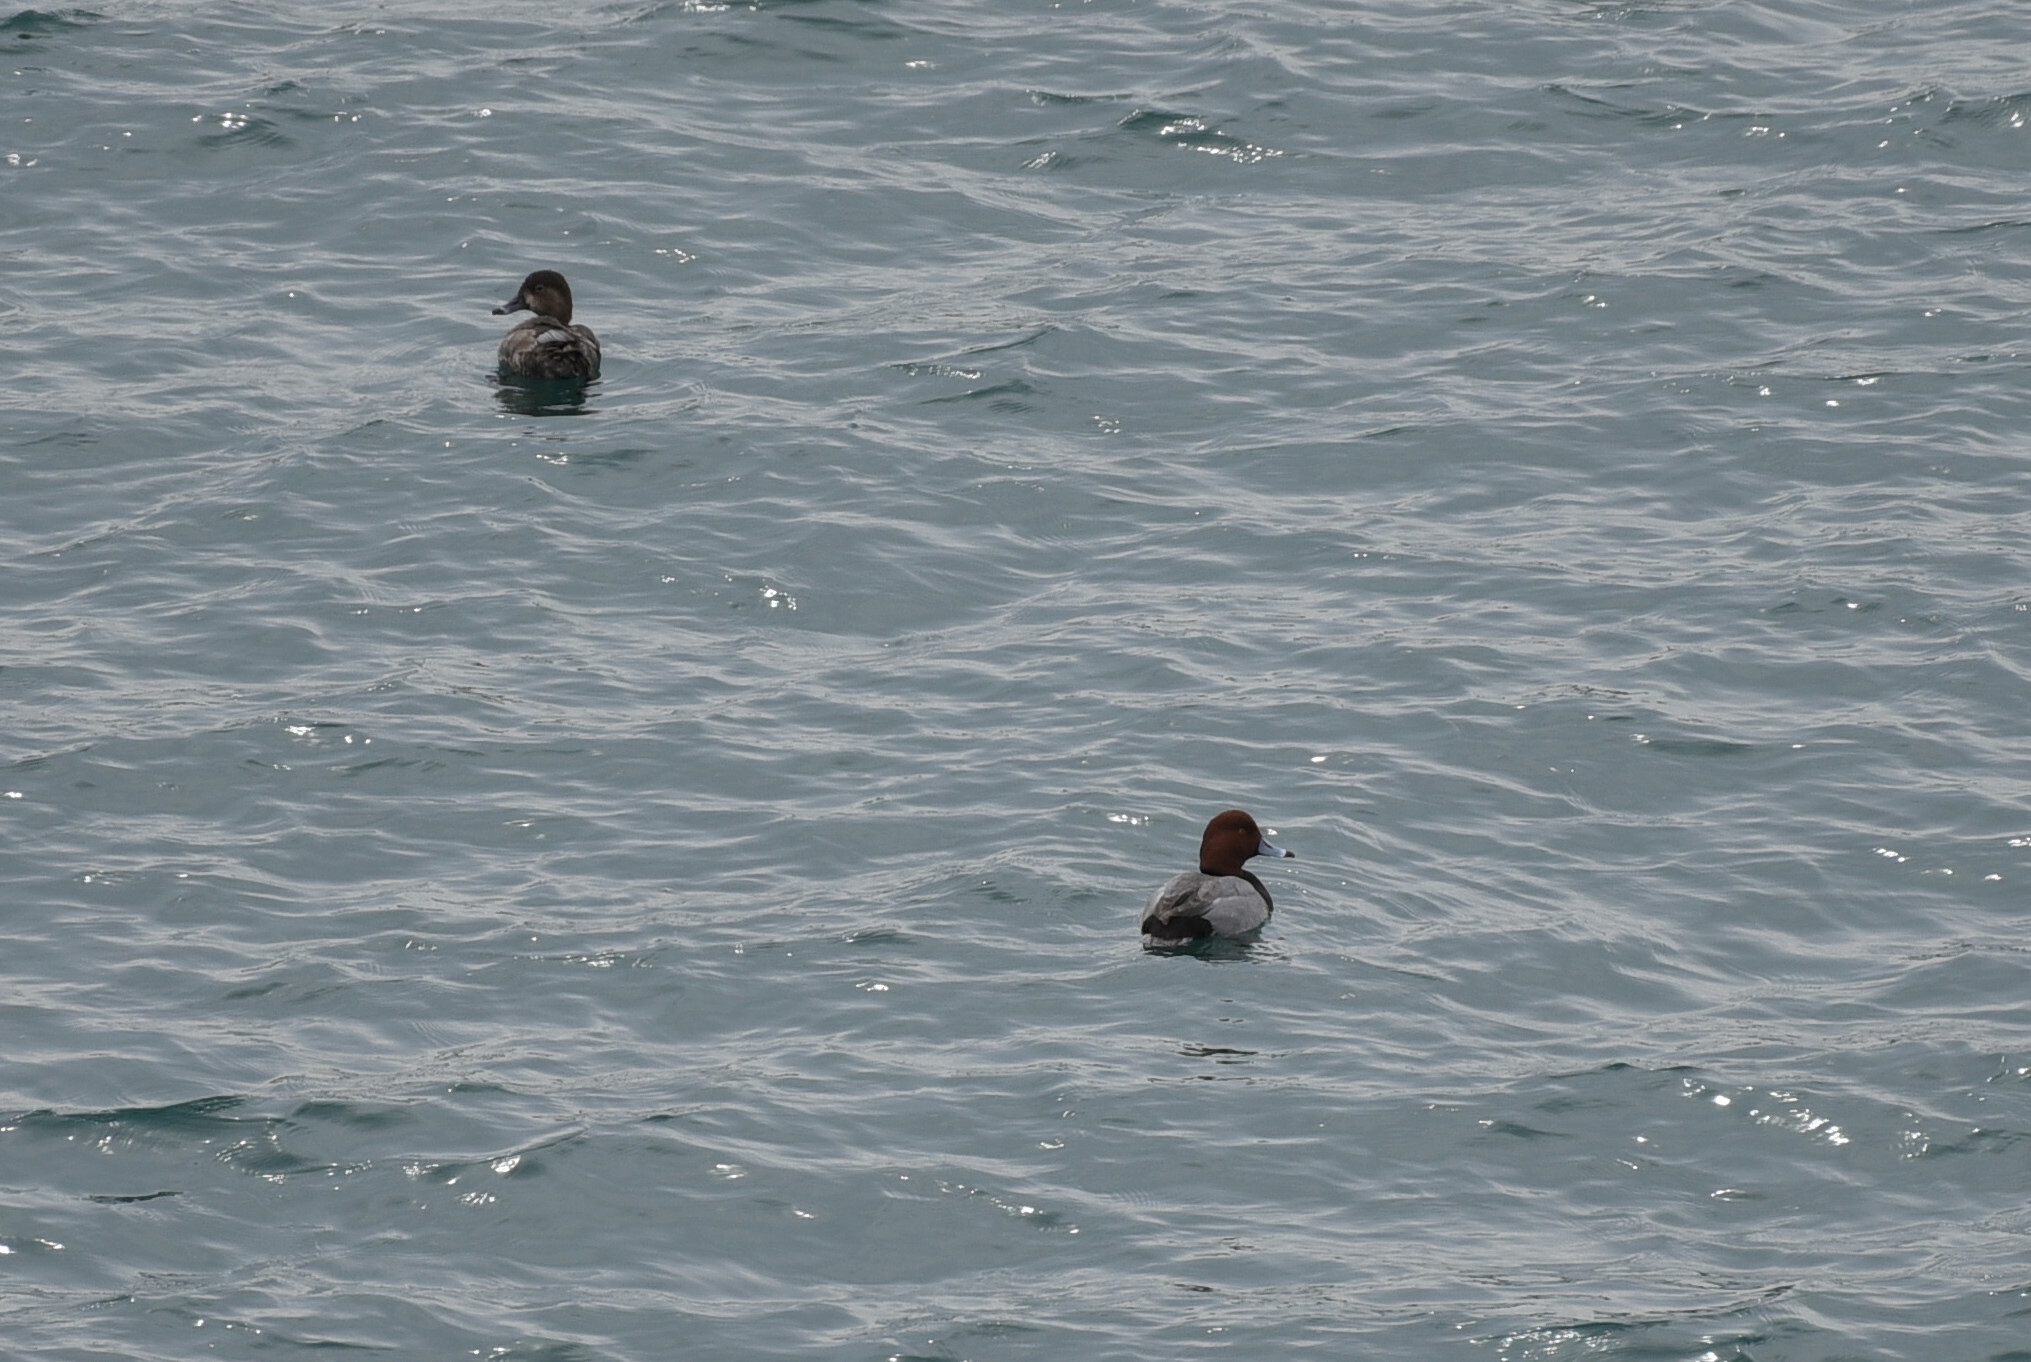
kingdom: Animalia
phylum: Chordata
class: Aves
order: Anseriformes
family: Anatidae
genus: Aythya
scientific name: Aythya americana
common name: Redhead
